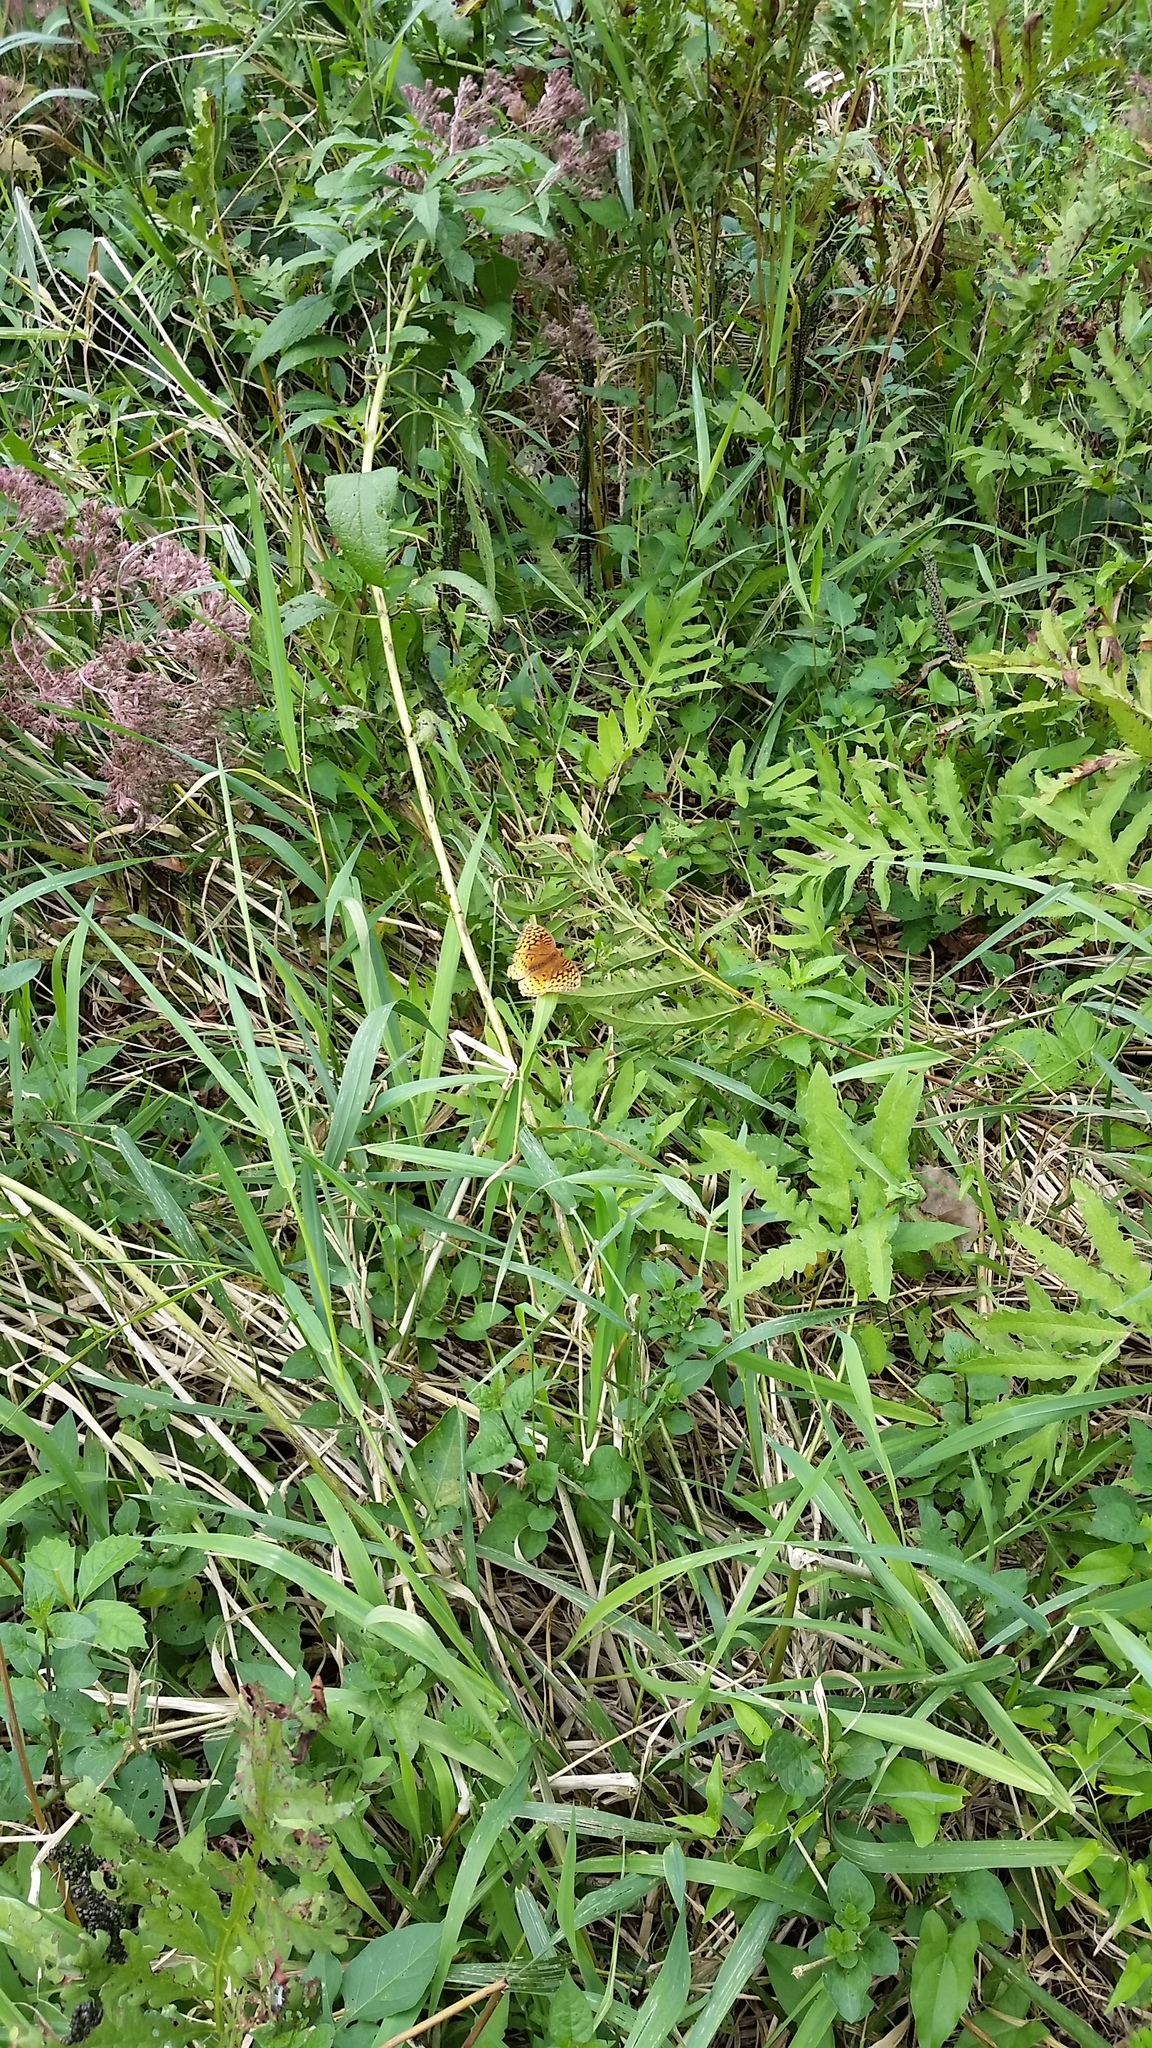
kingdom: Animalia
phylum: Arthropoda
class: Insecta
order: Lepidoptera
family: Nymphalidae
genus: Speyeria
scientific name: Speyeria cybele
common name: Great spangled fritillary
